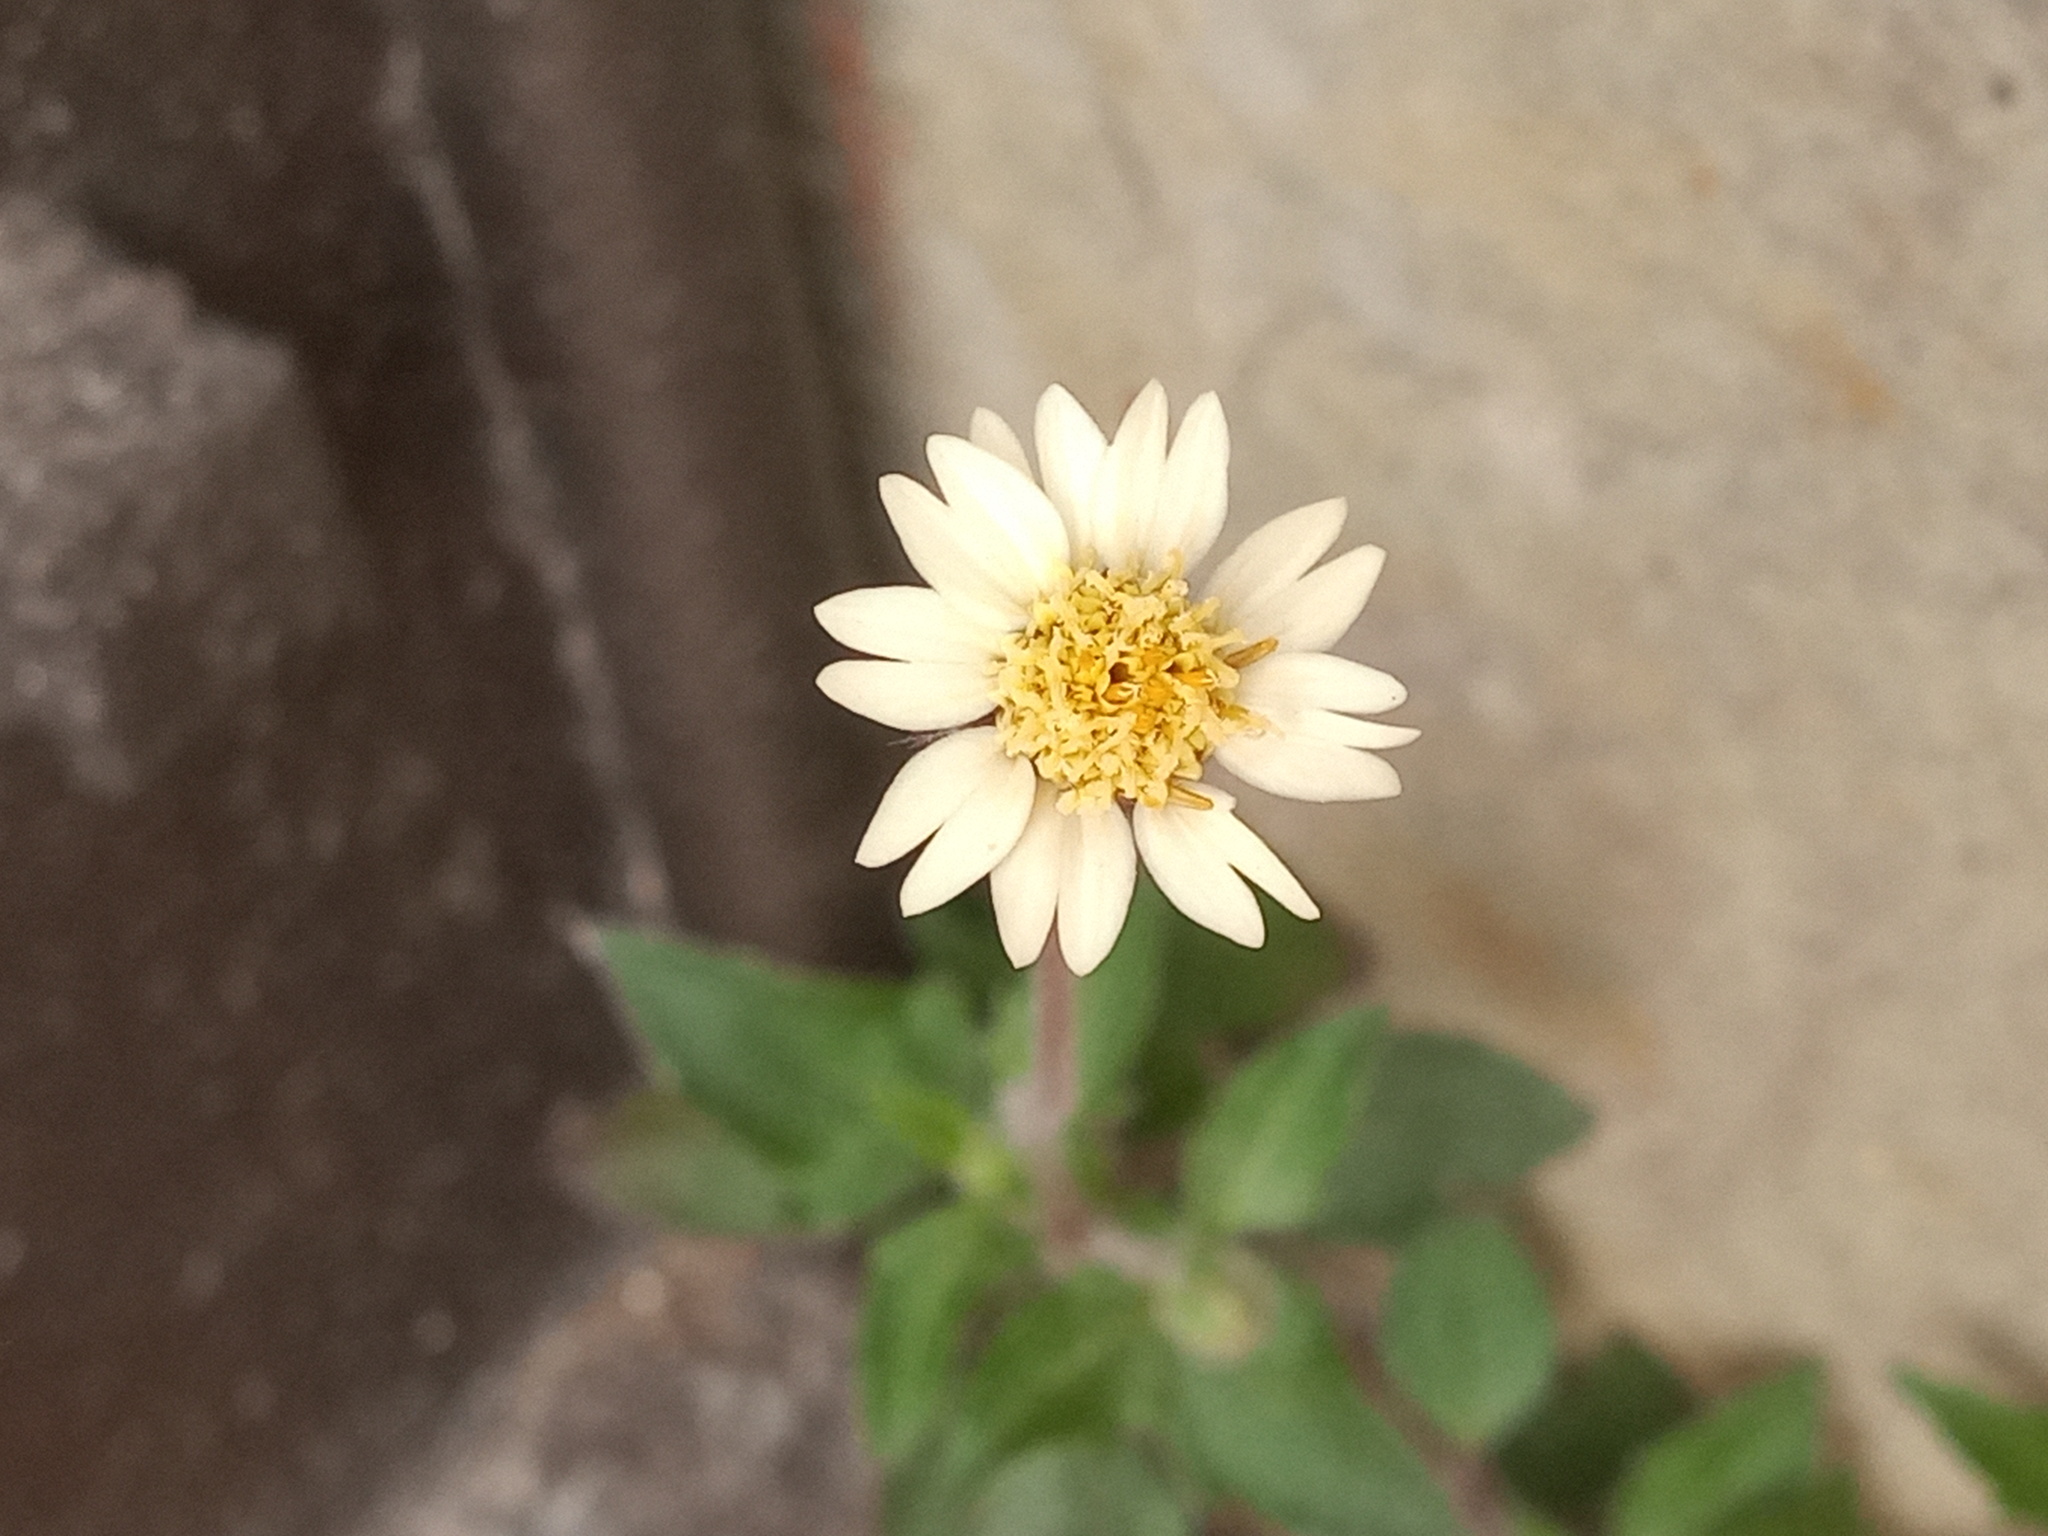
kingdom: Plantae
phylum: Tracheophyta
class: Magnoliopsida
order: Asterales
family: Asteraceae
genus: Tridax
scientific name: Tridax procumbens
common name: Coatbuttons
